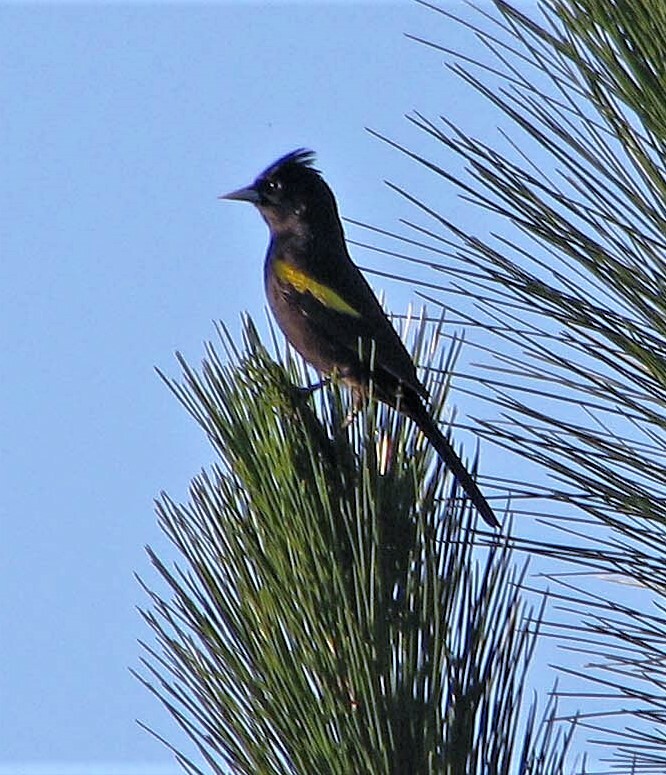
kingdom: Animalia
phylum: Chordata
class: Aves
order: Passeriformes
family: Icteridae
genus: Cacicus
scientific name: Cacicus chrysopterus
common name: Golden-winged cacique
